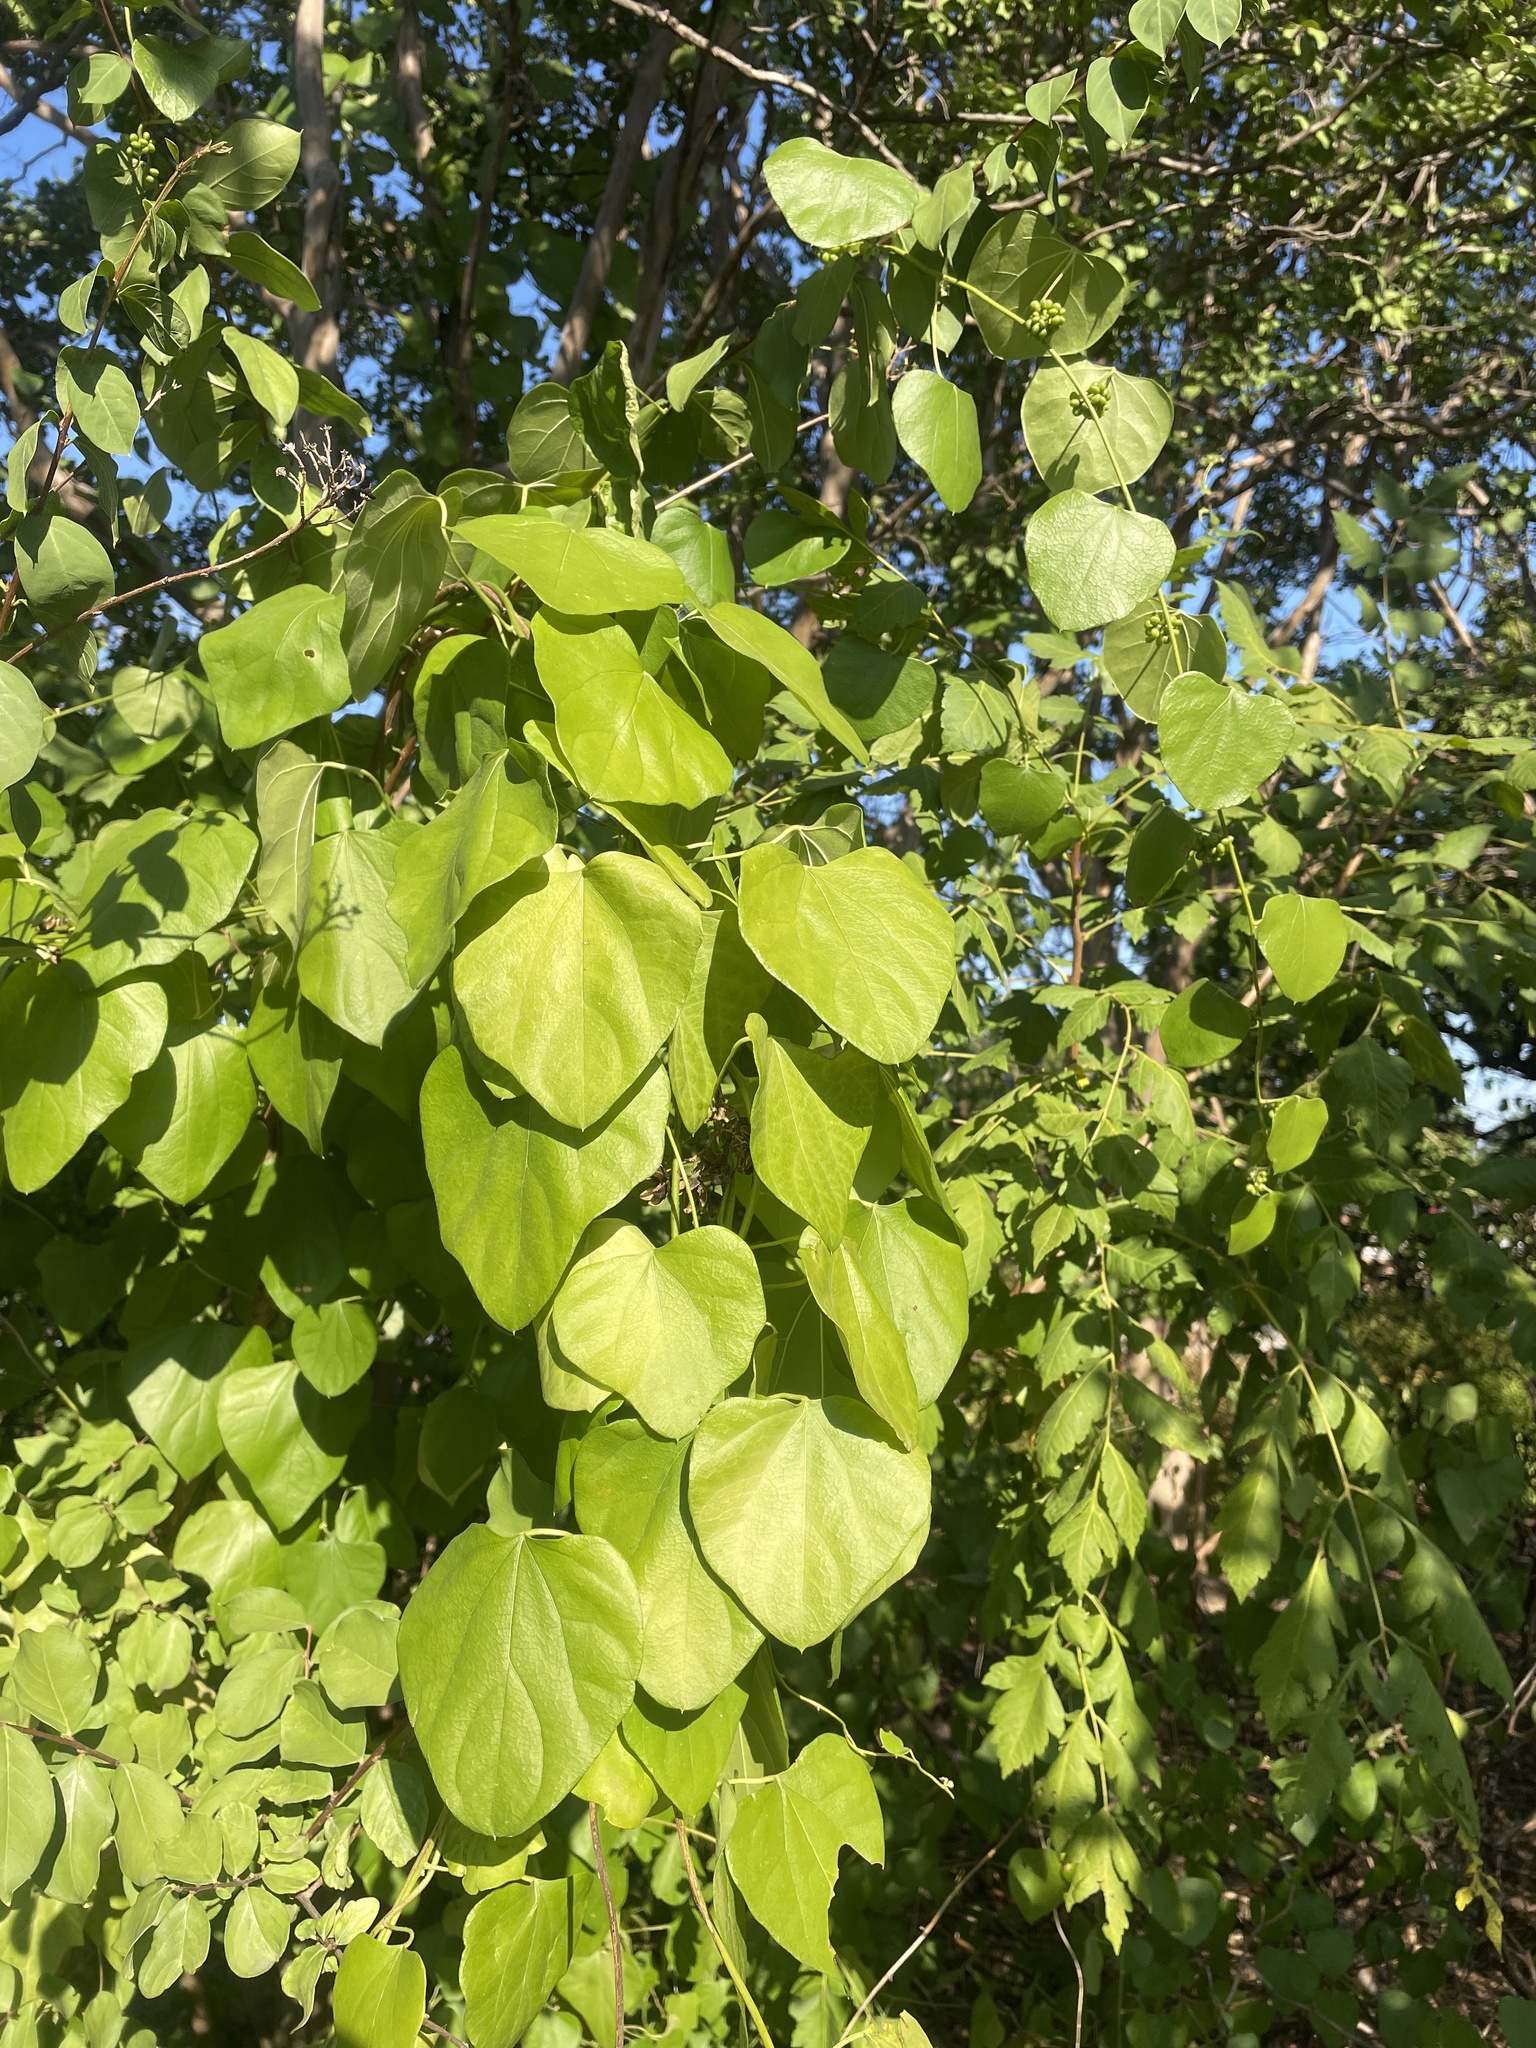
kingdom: Plantae
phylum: Tracheophyta
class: Magnoliopsida
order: Ranunculales
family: Menispermaceae
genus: Cocculus
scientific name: Cocculus carolinus
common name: Carolina moonseed
